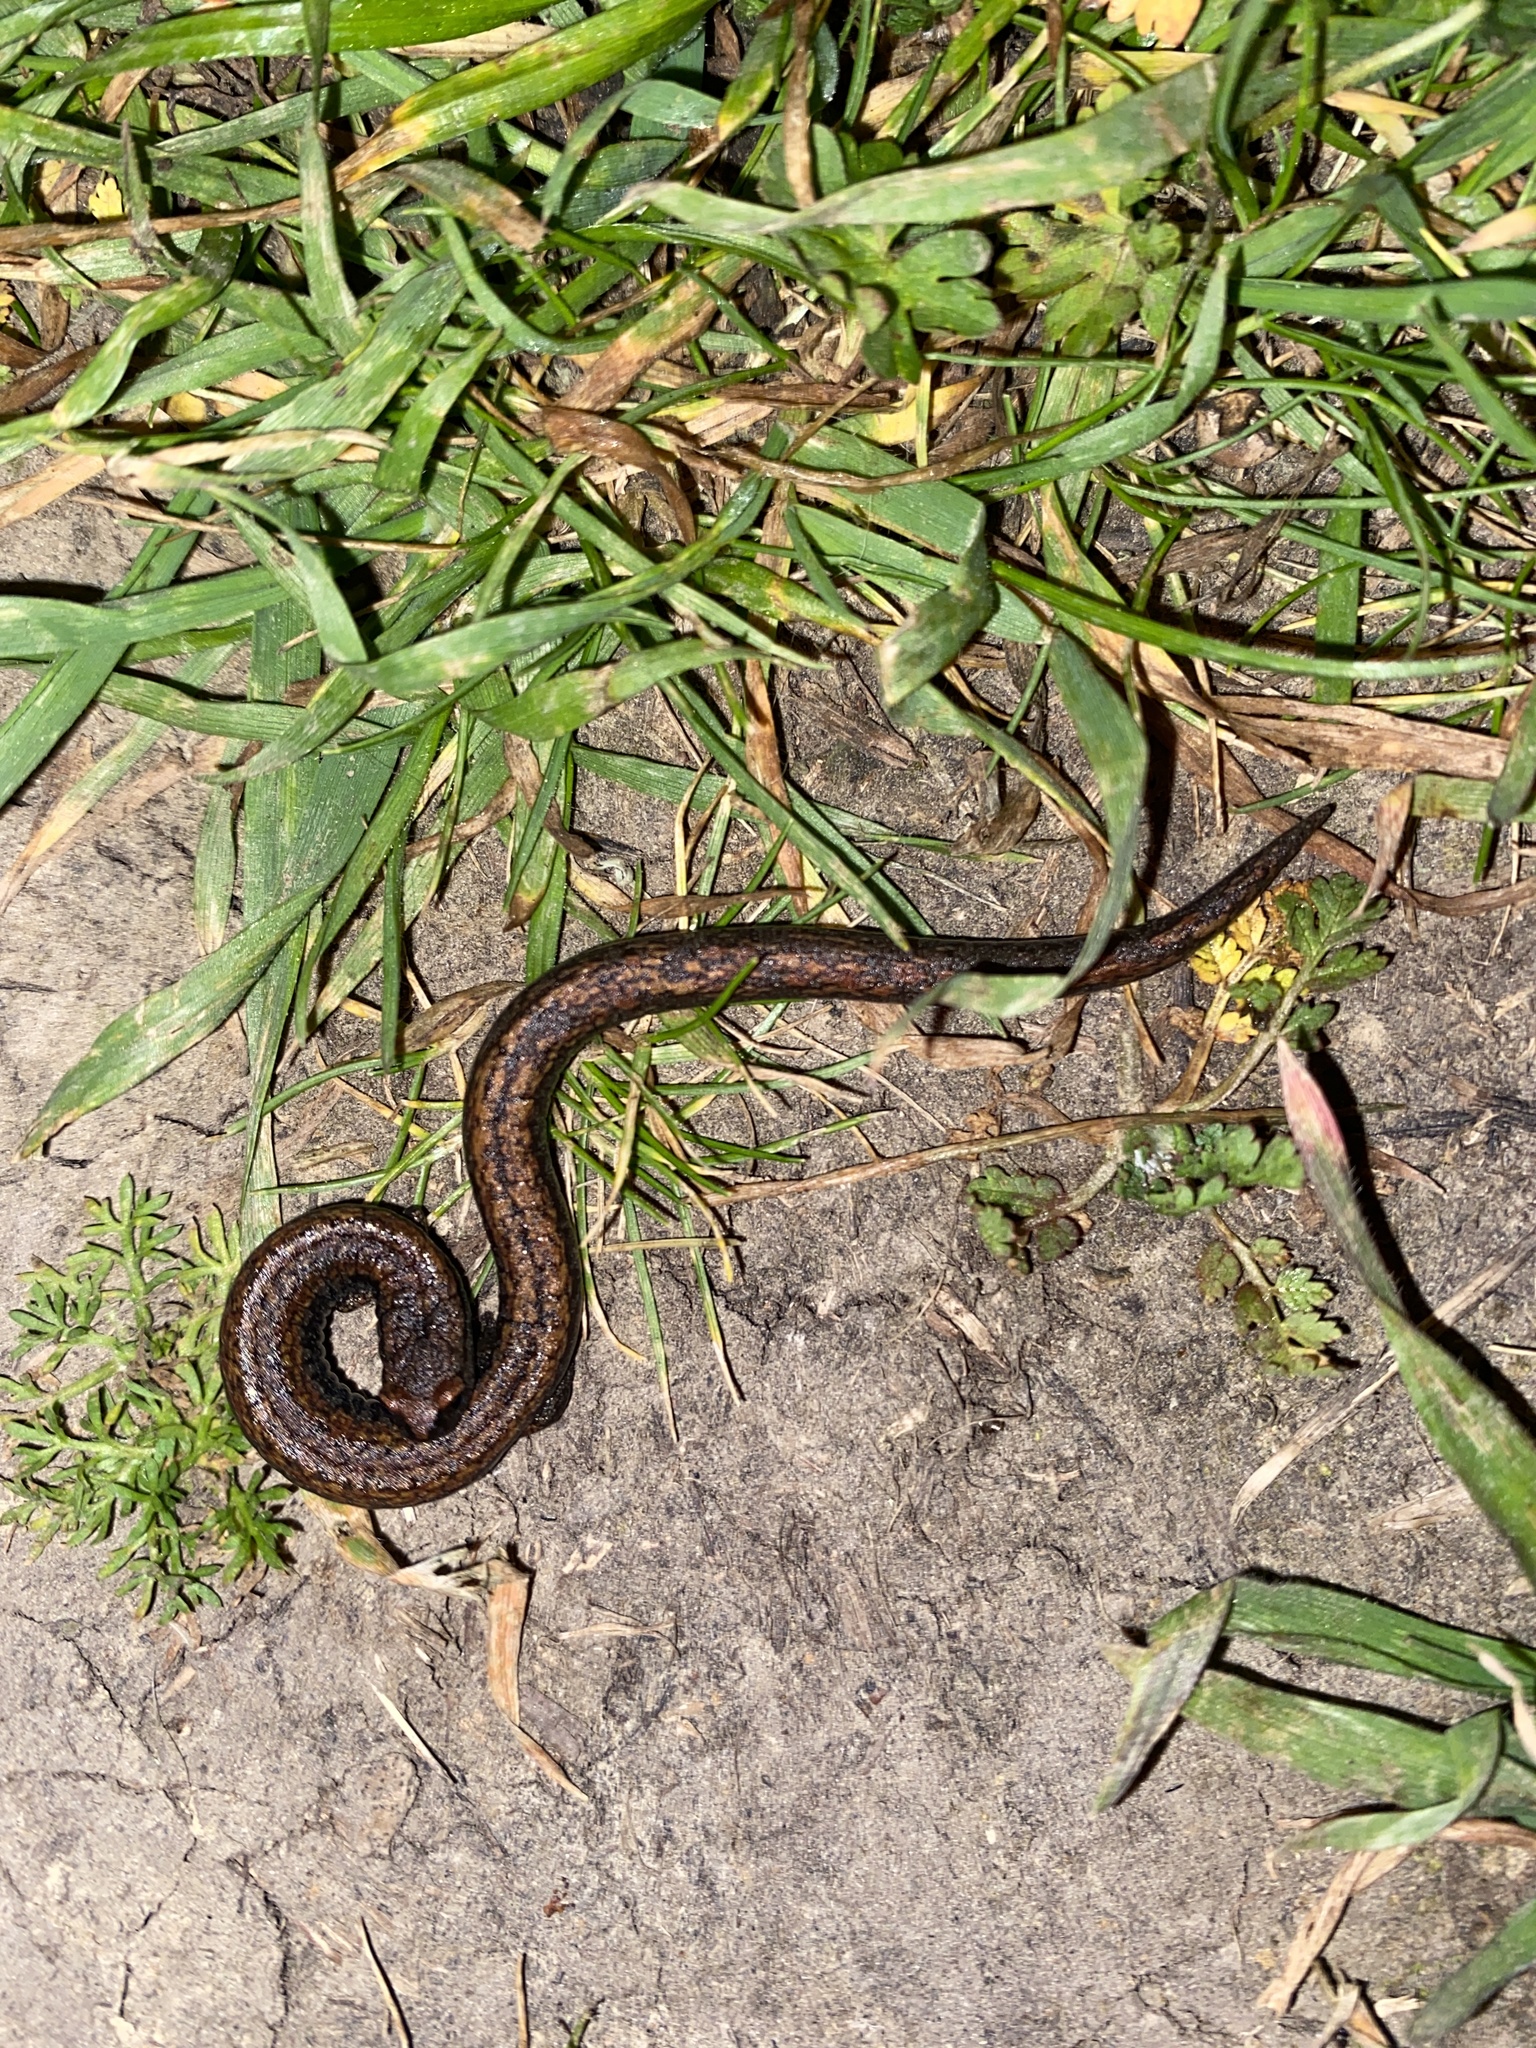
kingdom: Animalia
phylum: Chordata
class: Amphibia
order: Caudata
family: Plethodontidae
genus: Batrachoseps
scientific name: Batrachoseps attenuatus
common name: California slender salamander
